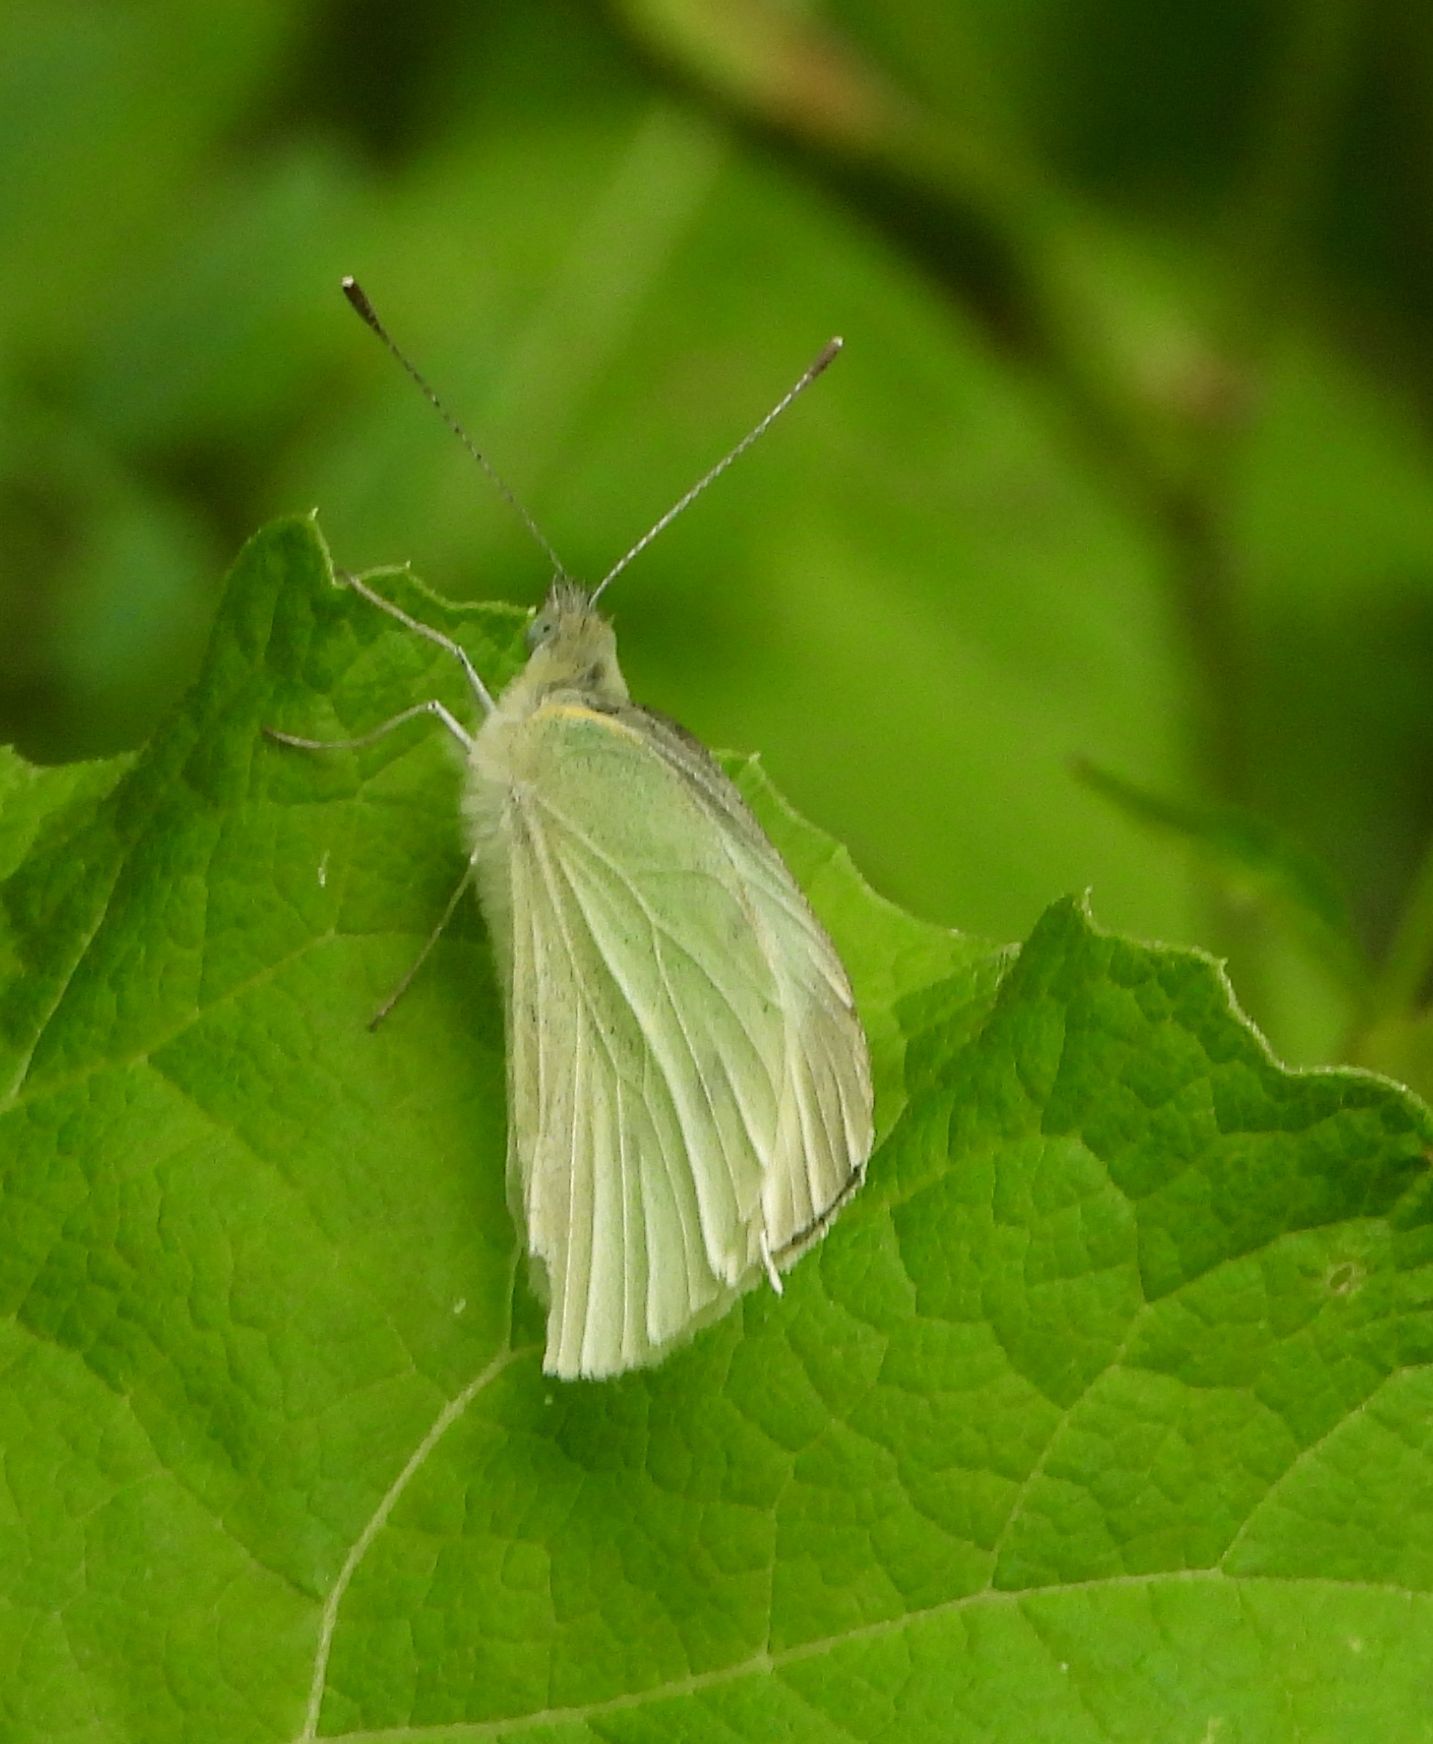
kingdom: Animalia
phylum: Arthropoda
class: Insecta
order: Lepidoptera
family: Pieridae
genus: Pieris
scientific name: Pieris rapae
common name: Small white
